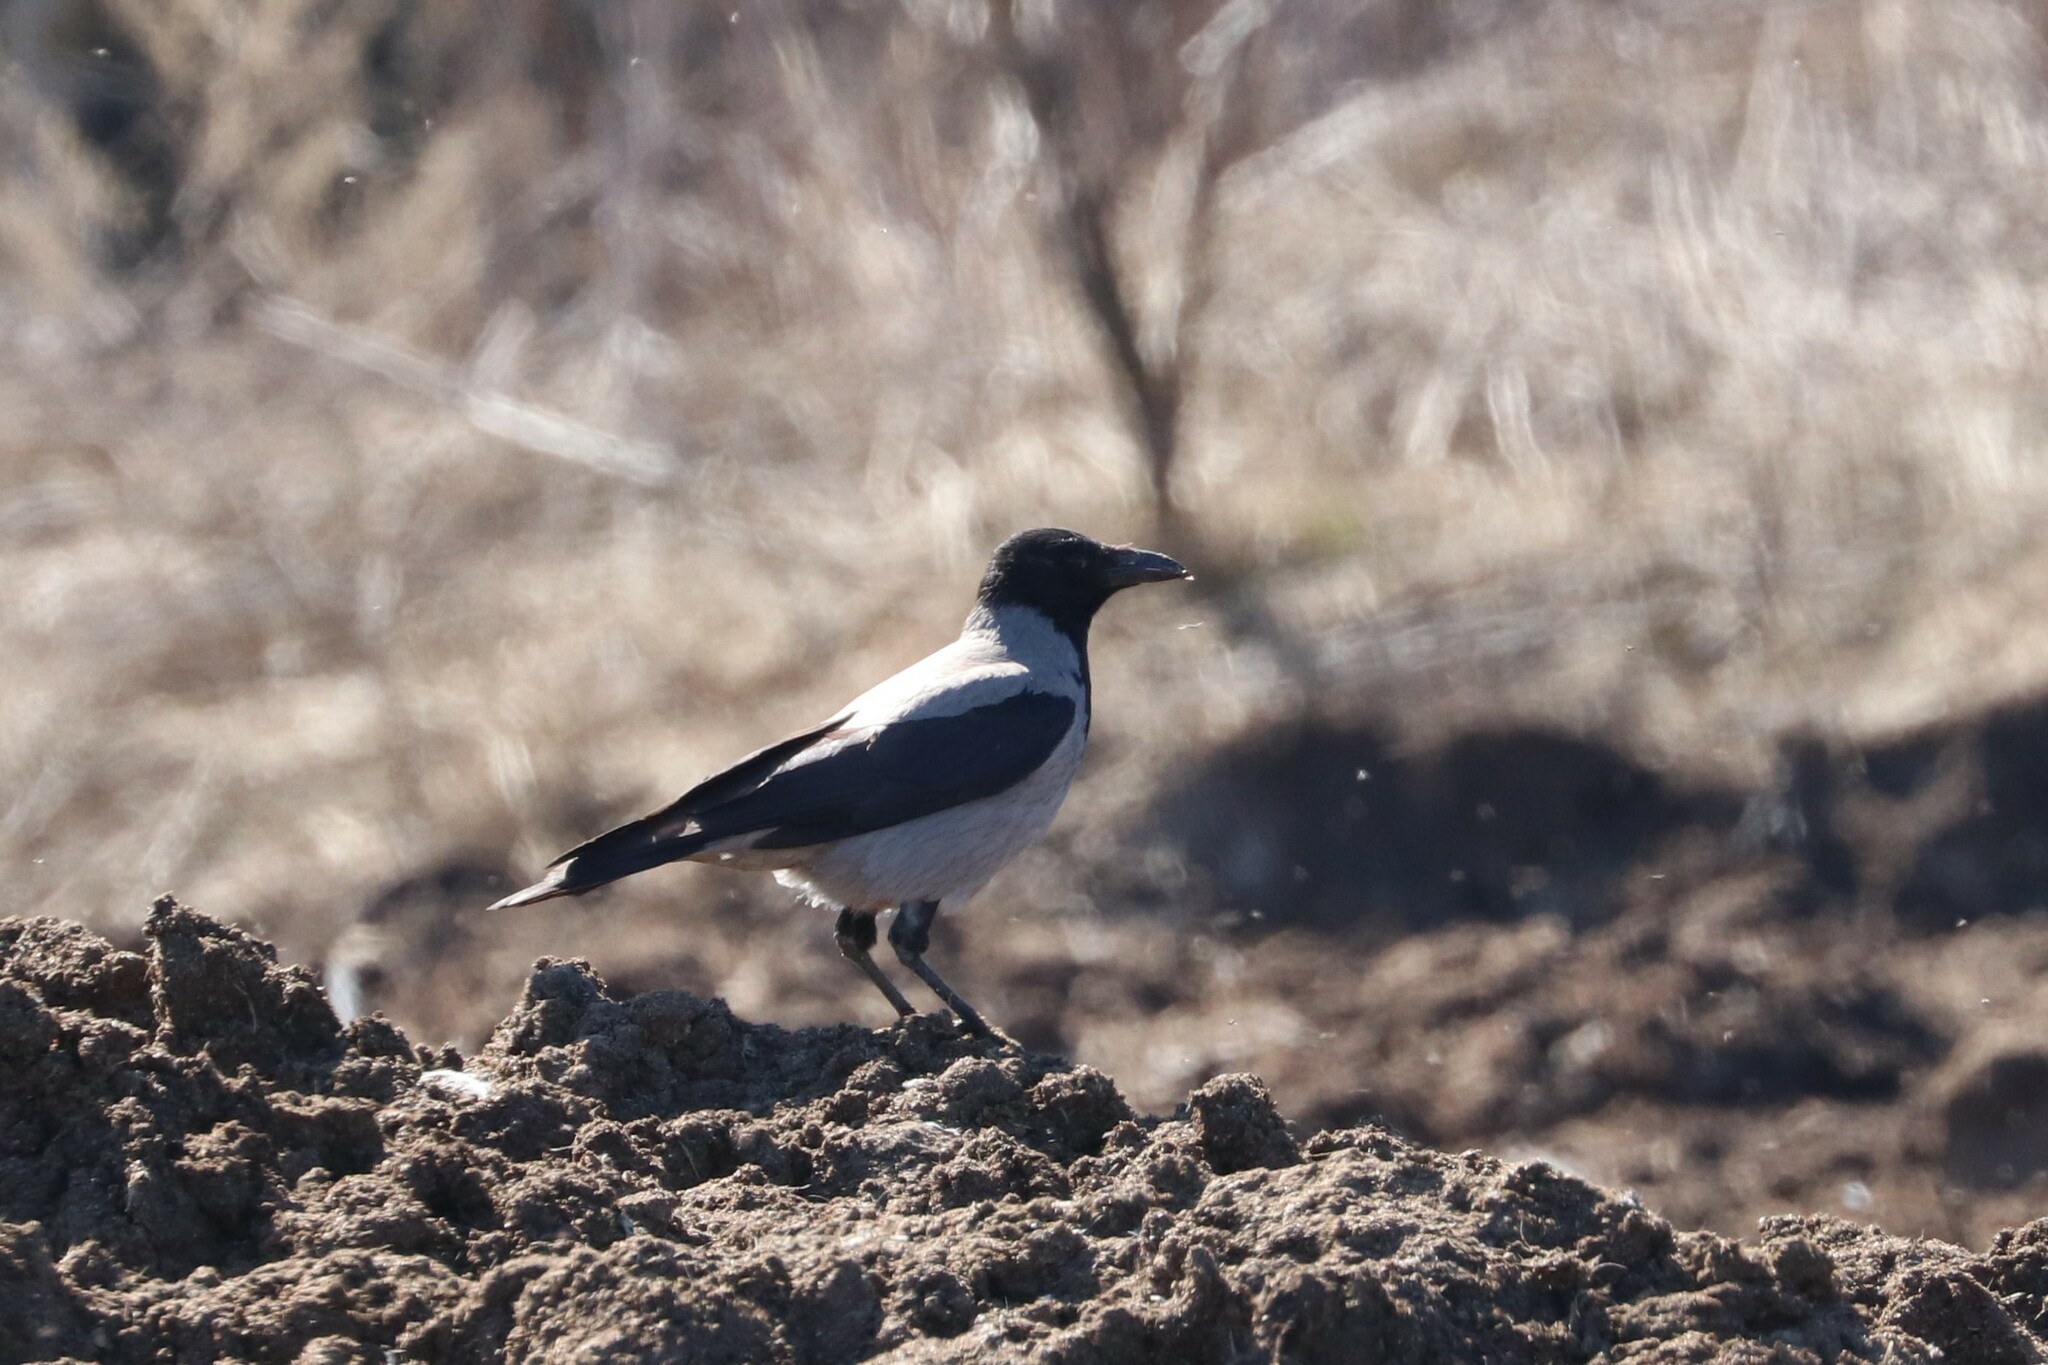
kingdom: Animalia
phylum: Chordata
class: Aves
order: Passeriformes
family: Corvidae
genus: Corvus
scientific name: Corvus cornix
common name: Hooded crow
